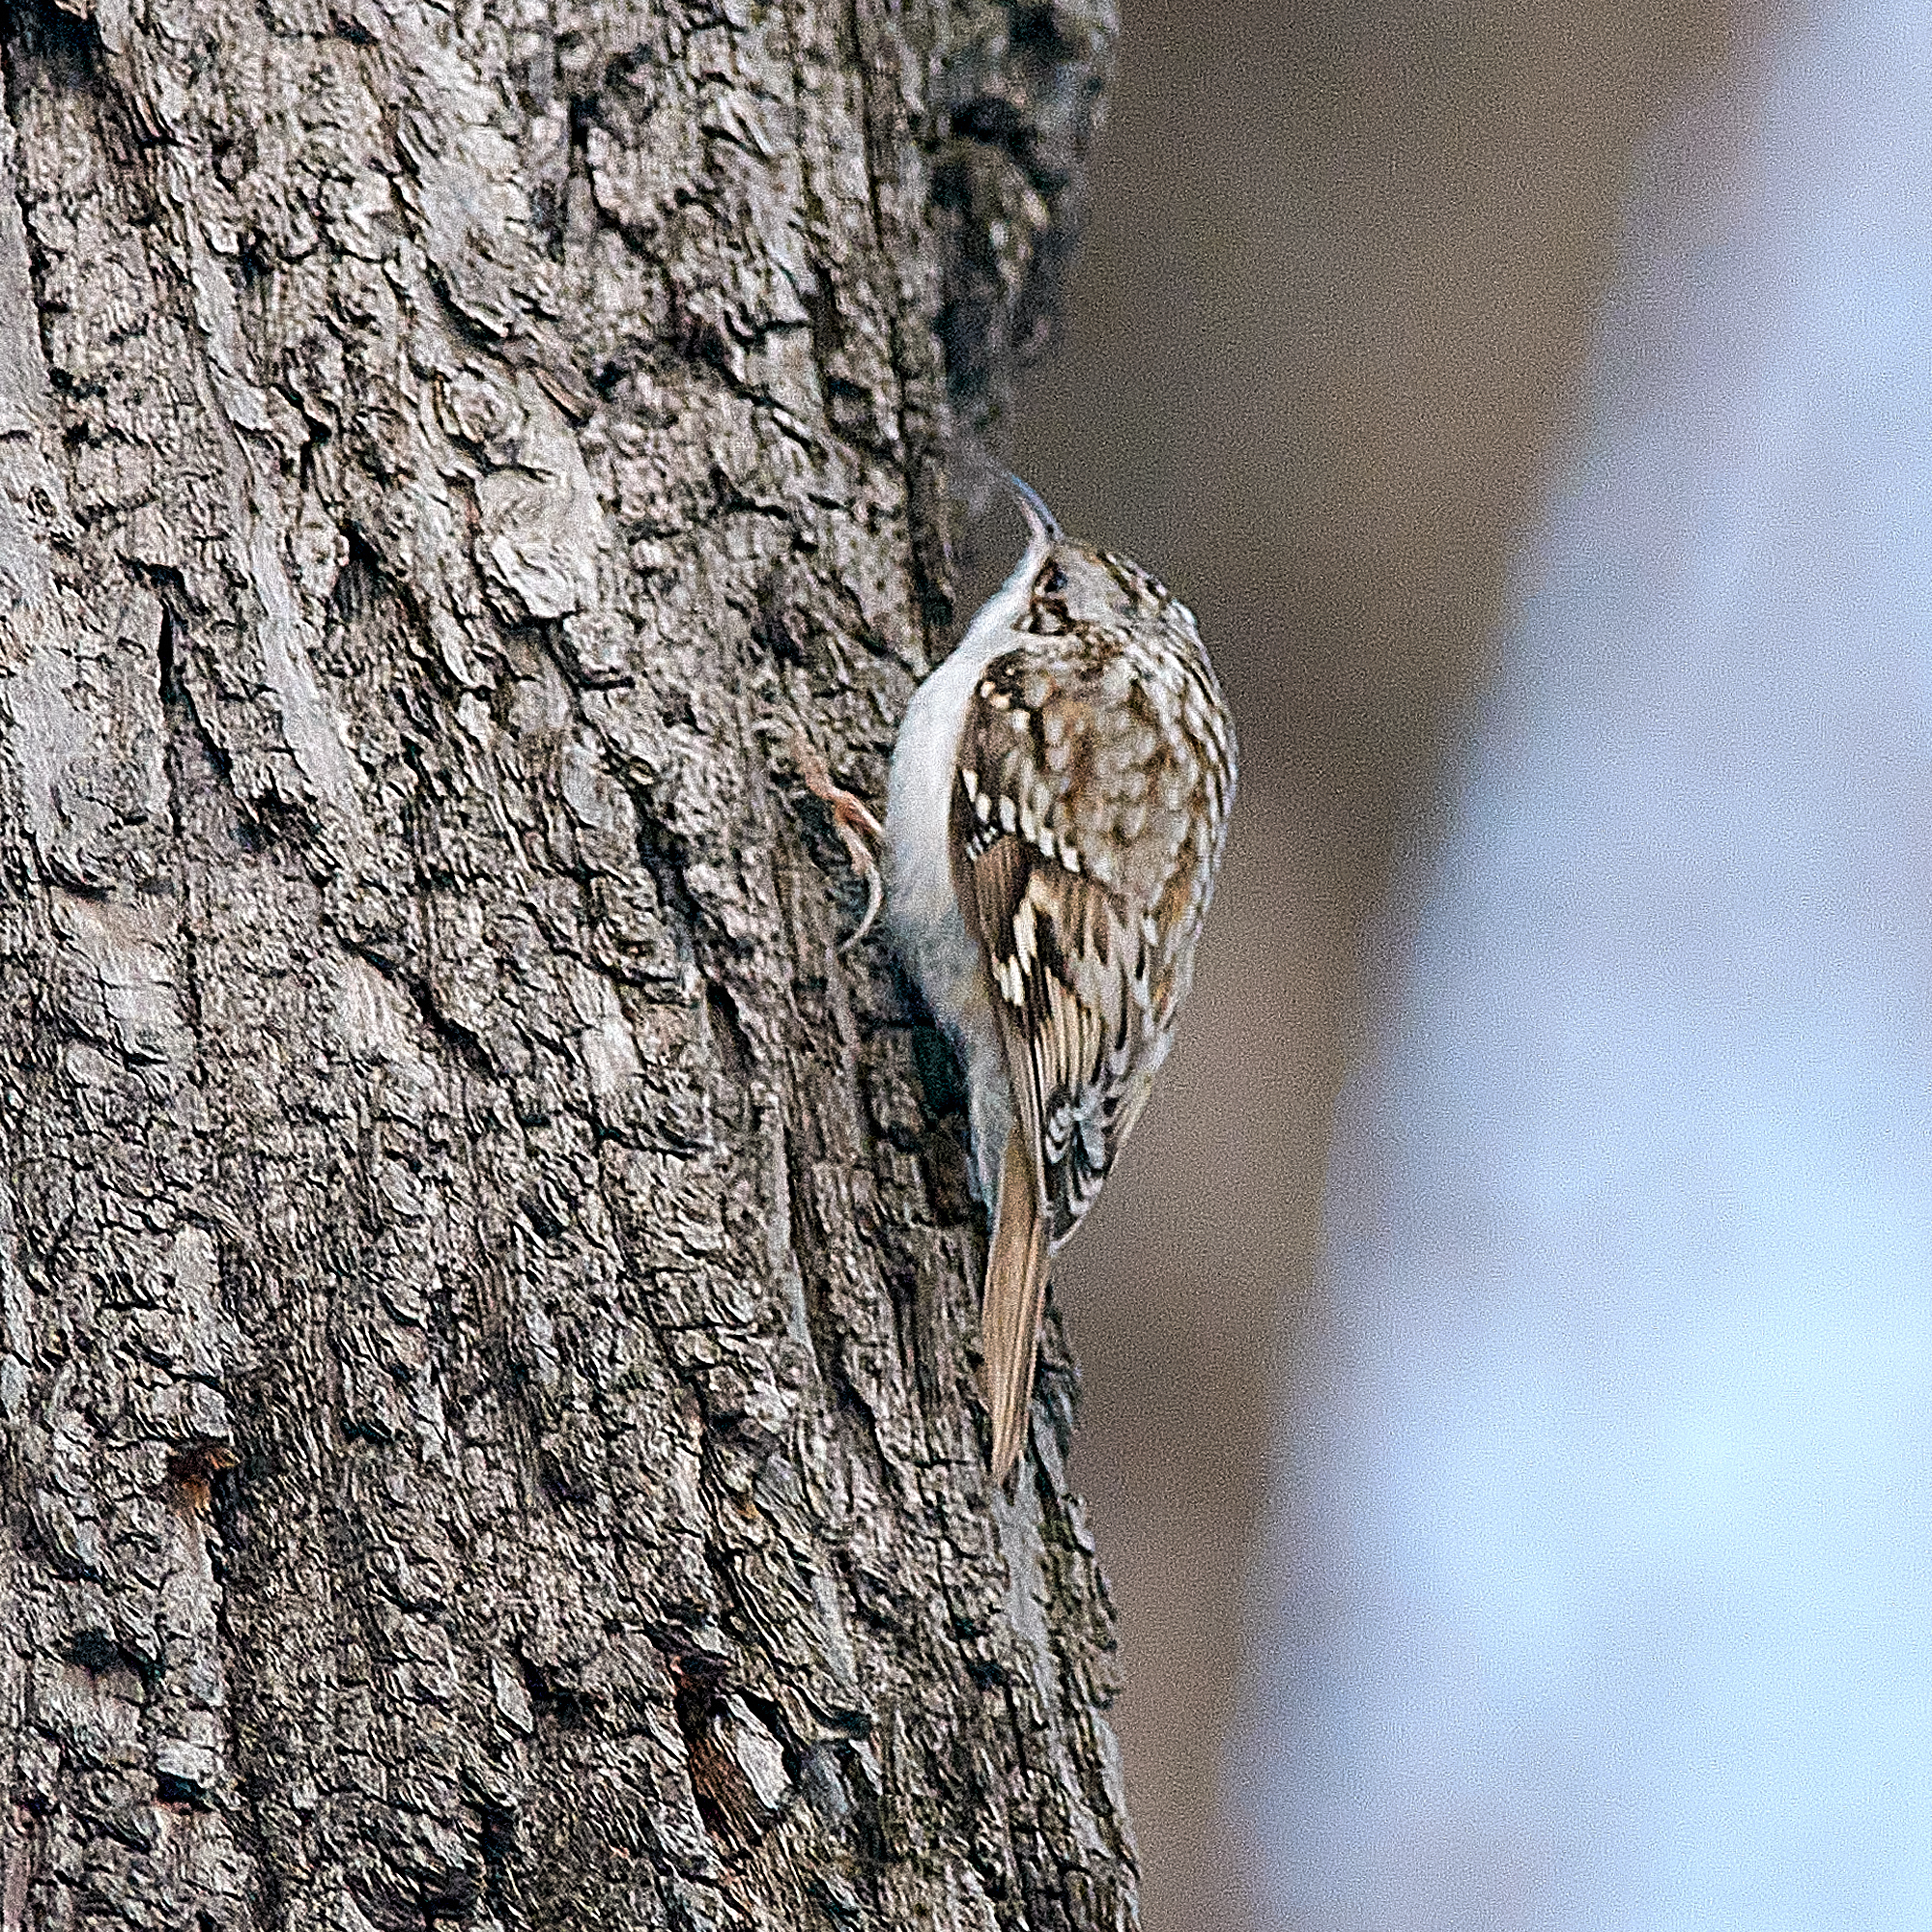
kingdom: Animalia
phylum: Chordata
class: Aves
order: Passeriformes
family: Certhiidae
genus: Certhia
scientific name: Certhia familiaris
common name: Eurasian treecreeper
